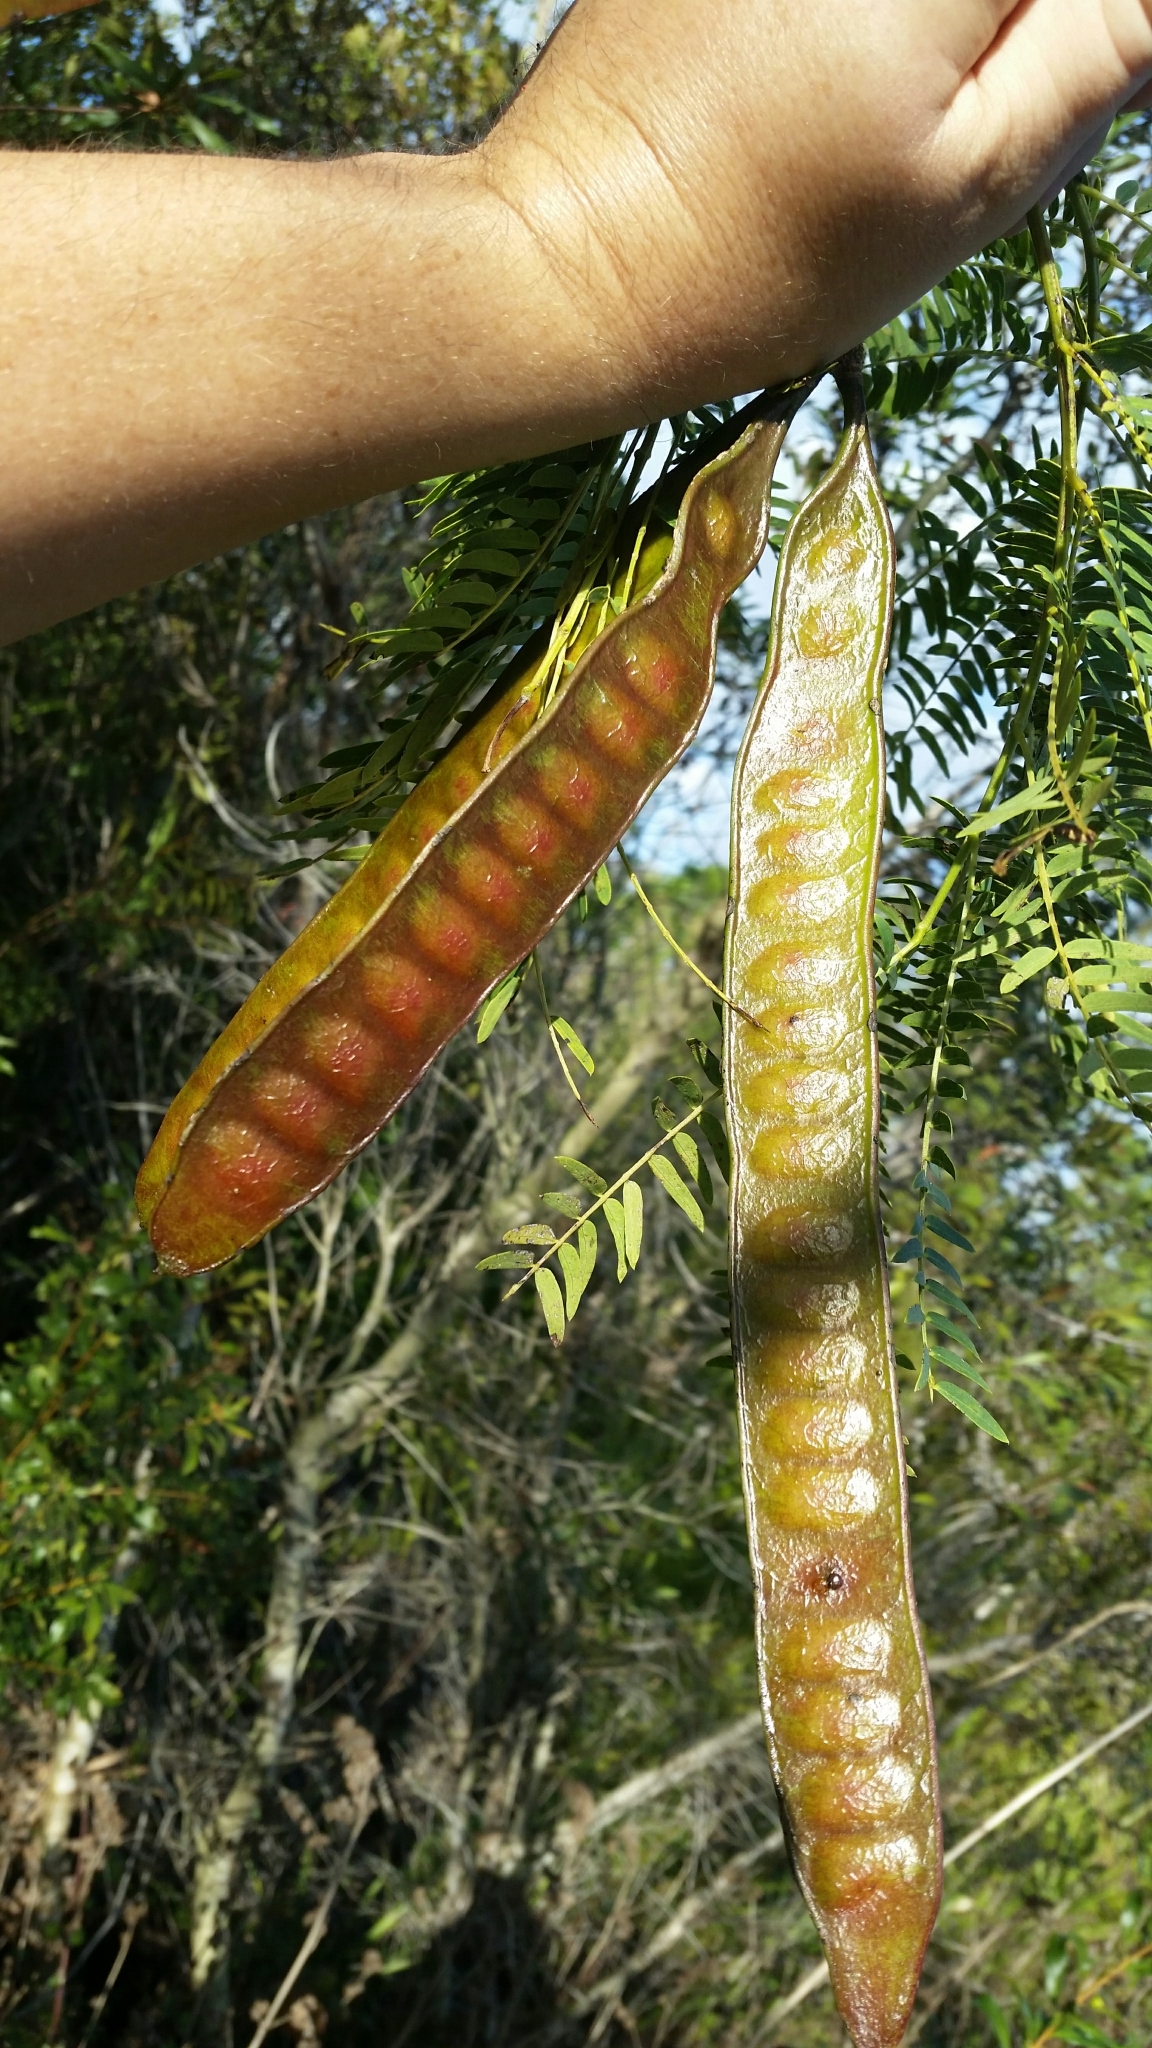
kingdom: Plantae
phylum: Tracheophyta
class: Magnoliopsida
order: Fabales
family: Fabaceae
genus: Leucaena
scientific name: Leucaena leucocephala
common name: White leadtree
